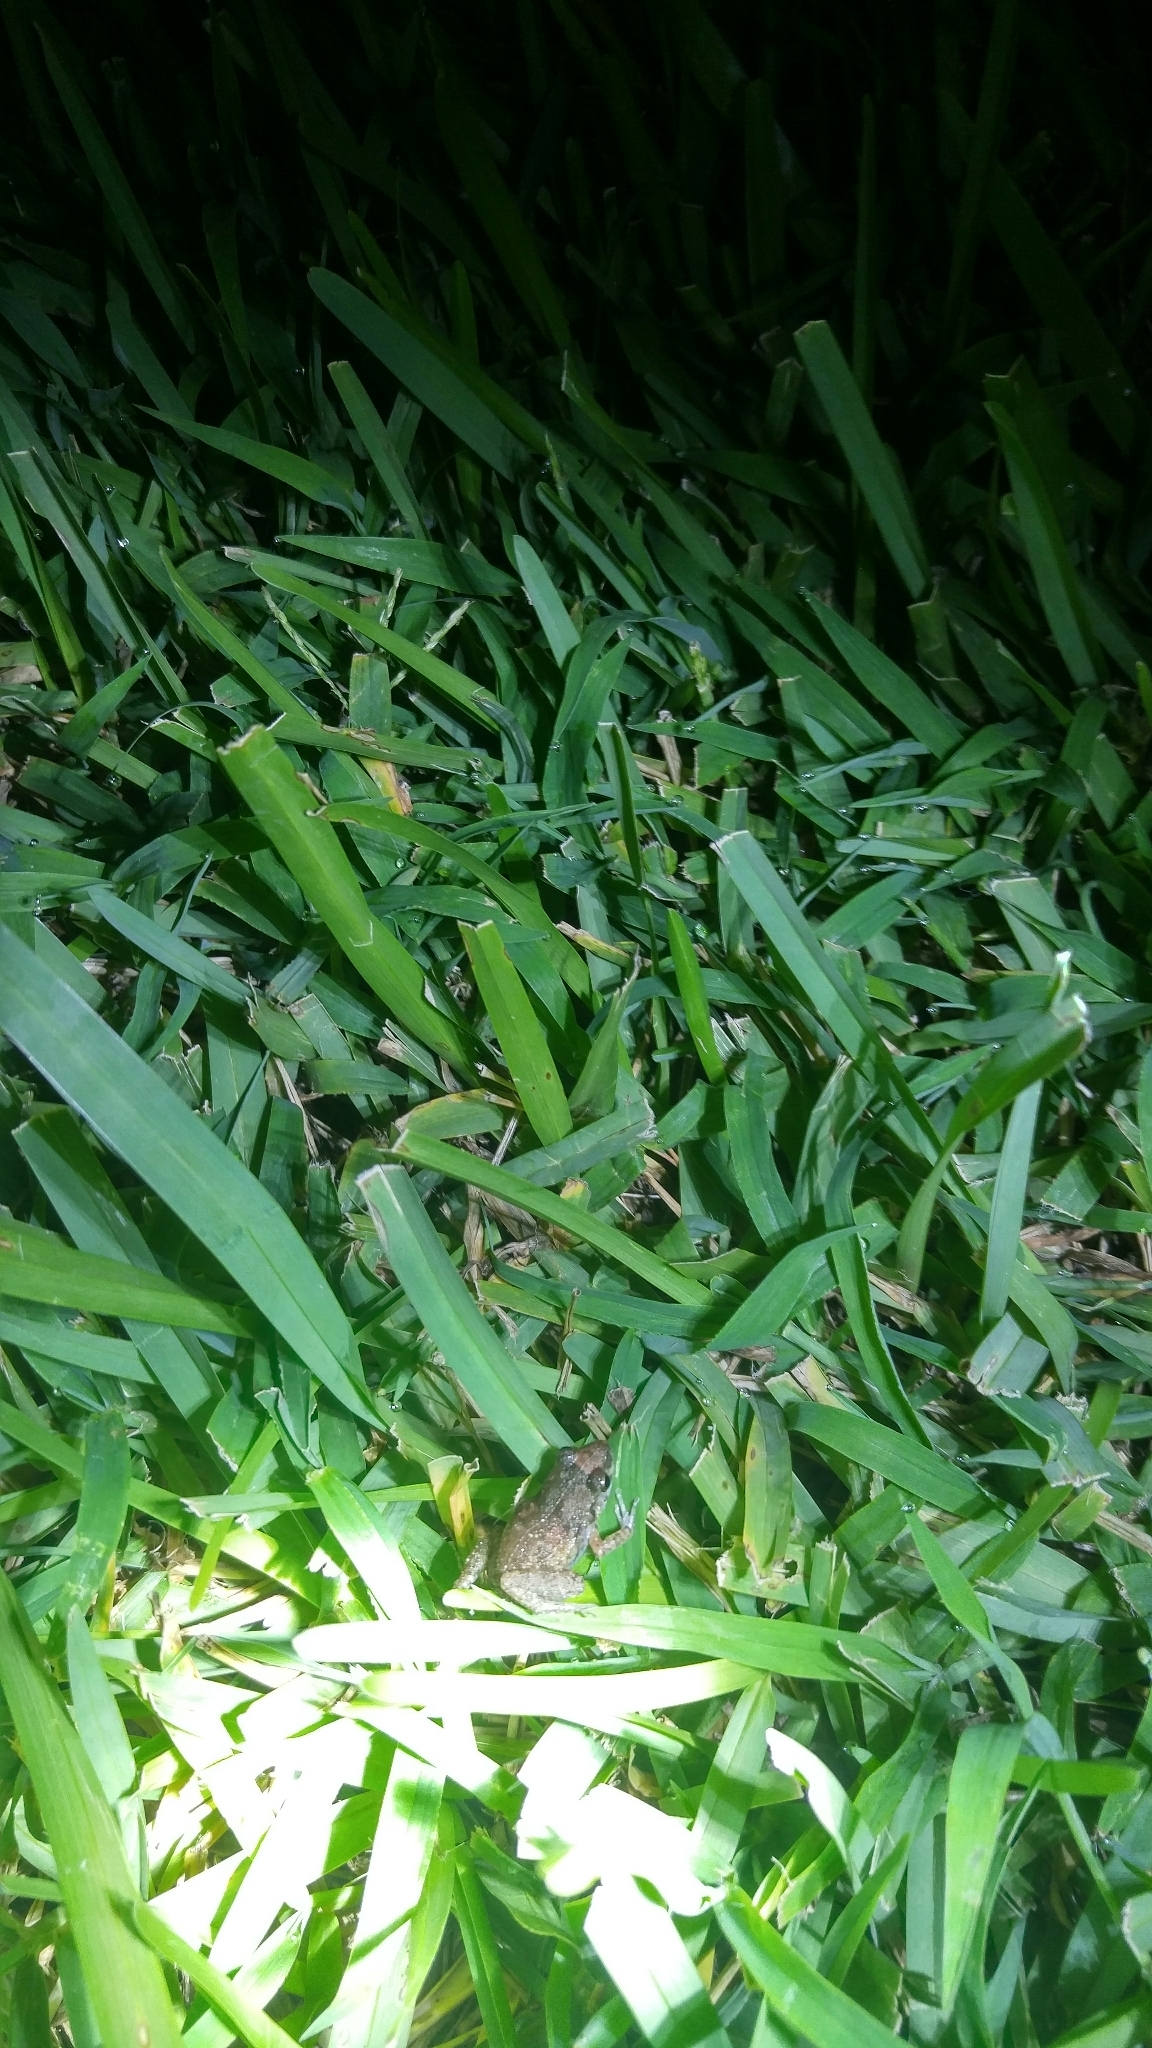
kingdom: Animalia
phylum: Chordata
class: Amphibia
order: Anura
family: Eleutherodactylidae
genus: Eleutherodactylus
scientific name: Eleutherodactylus planirostris
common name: Greenhouse frog
